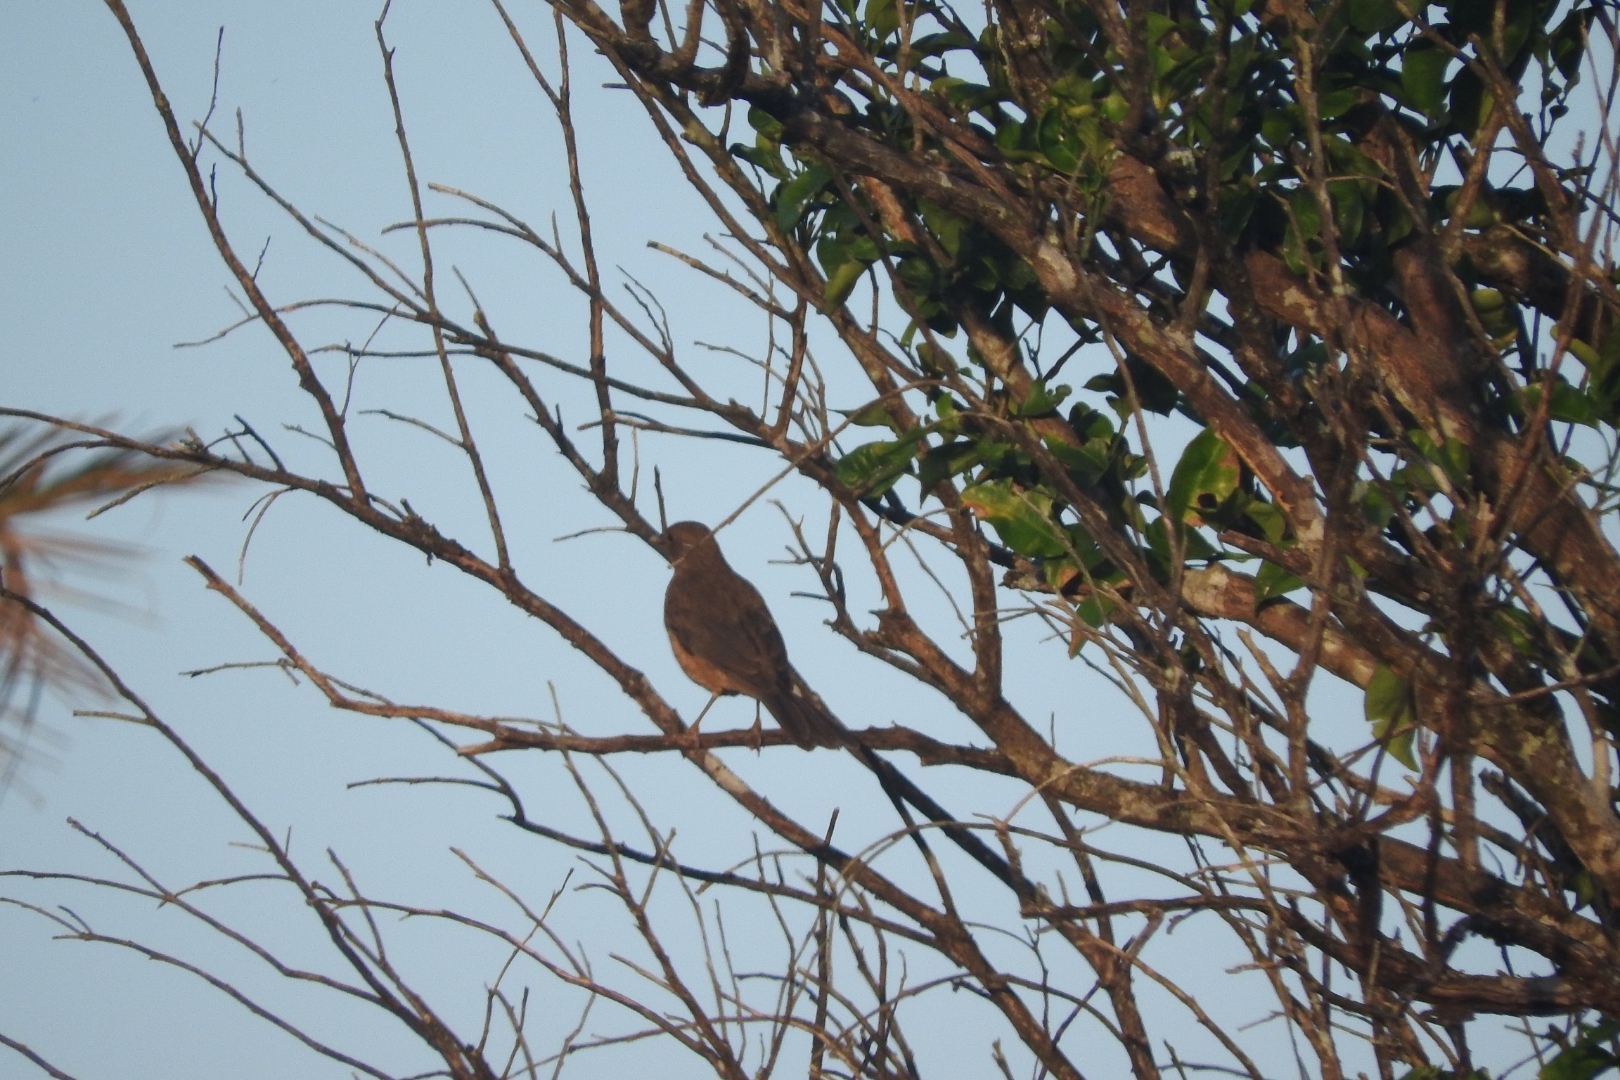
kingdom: Animalia
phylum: Chordata
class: Aves
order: Passeriformes
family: Turdidae
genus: Turdus
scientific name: Turdus grayi
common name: Clay-colored thrush
